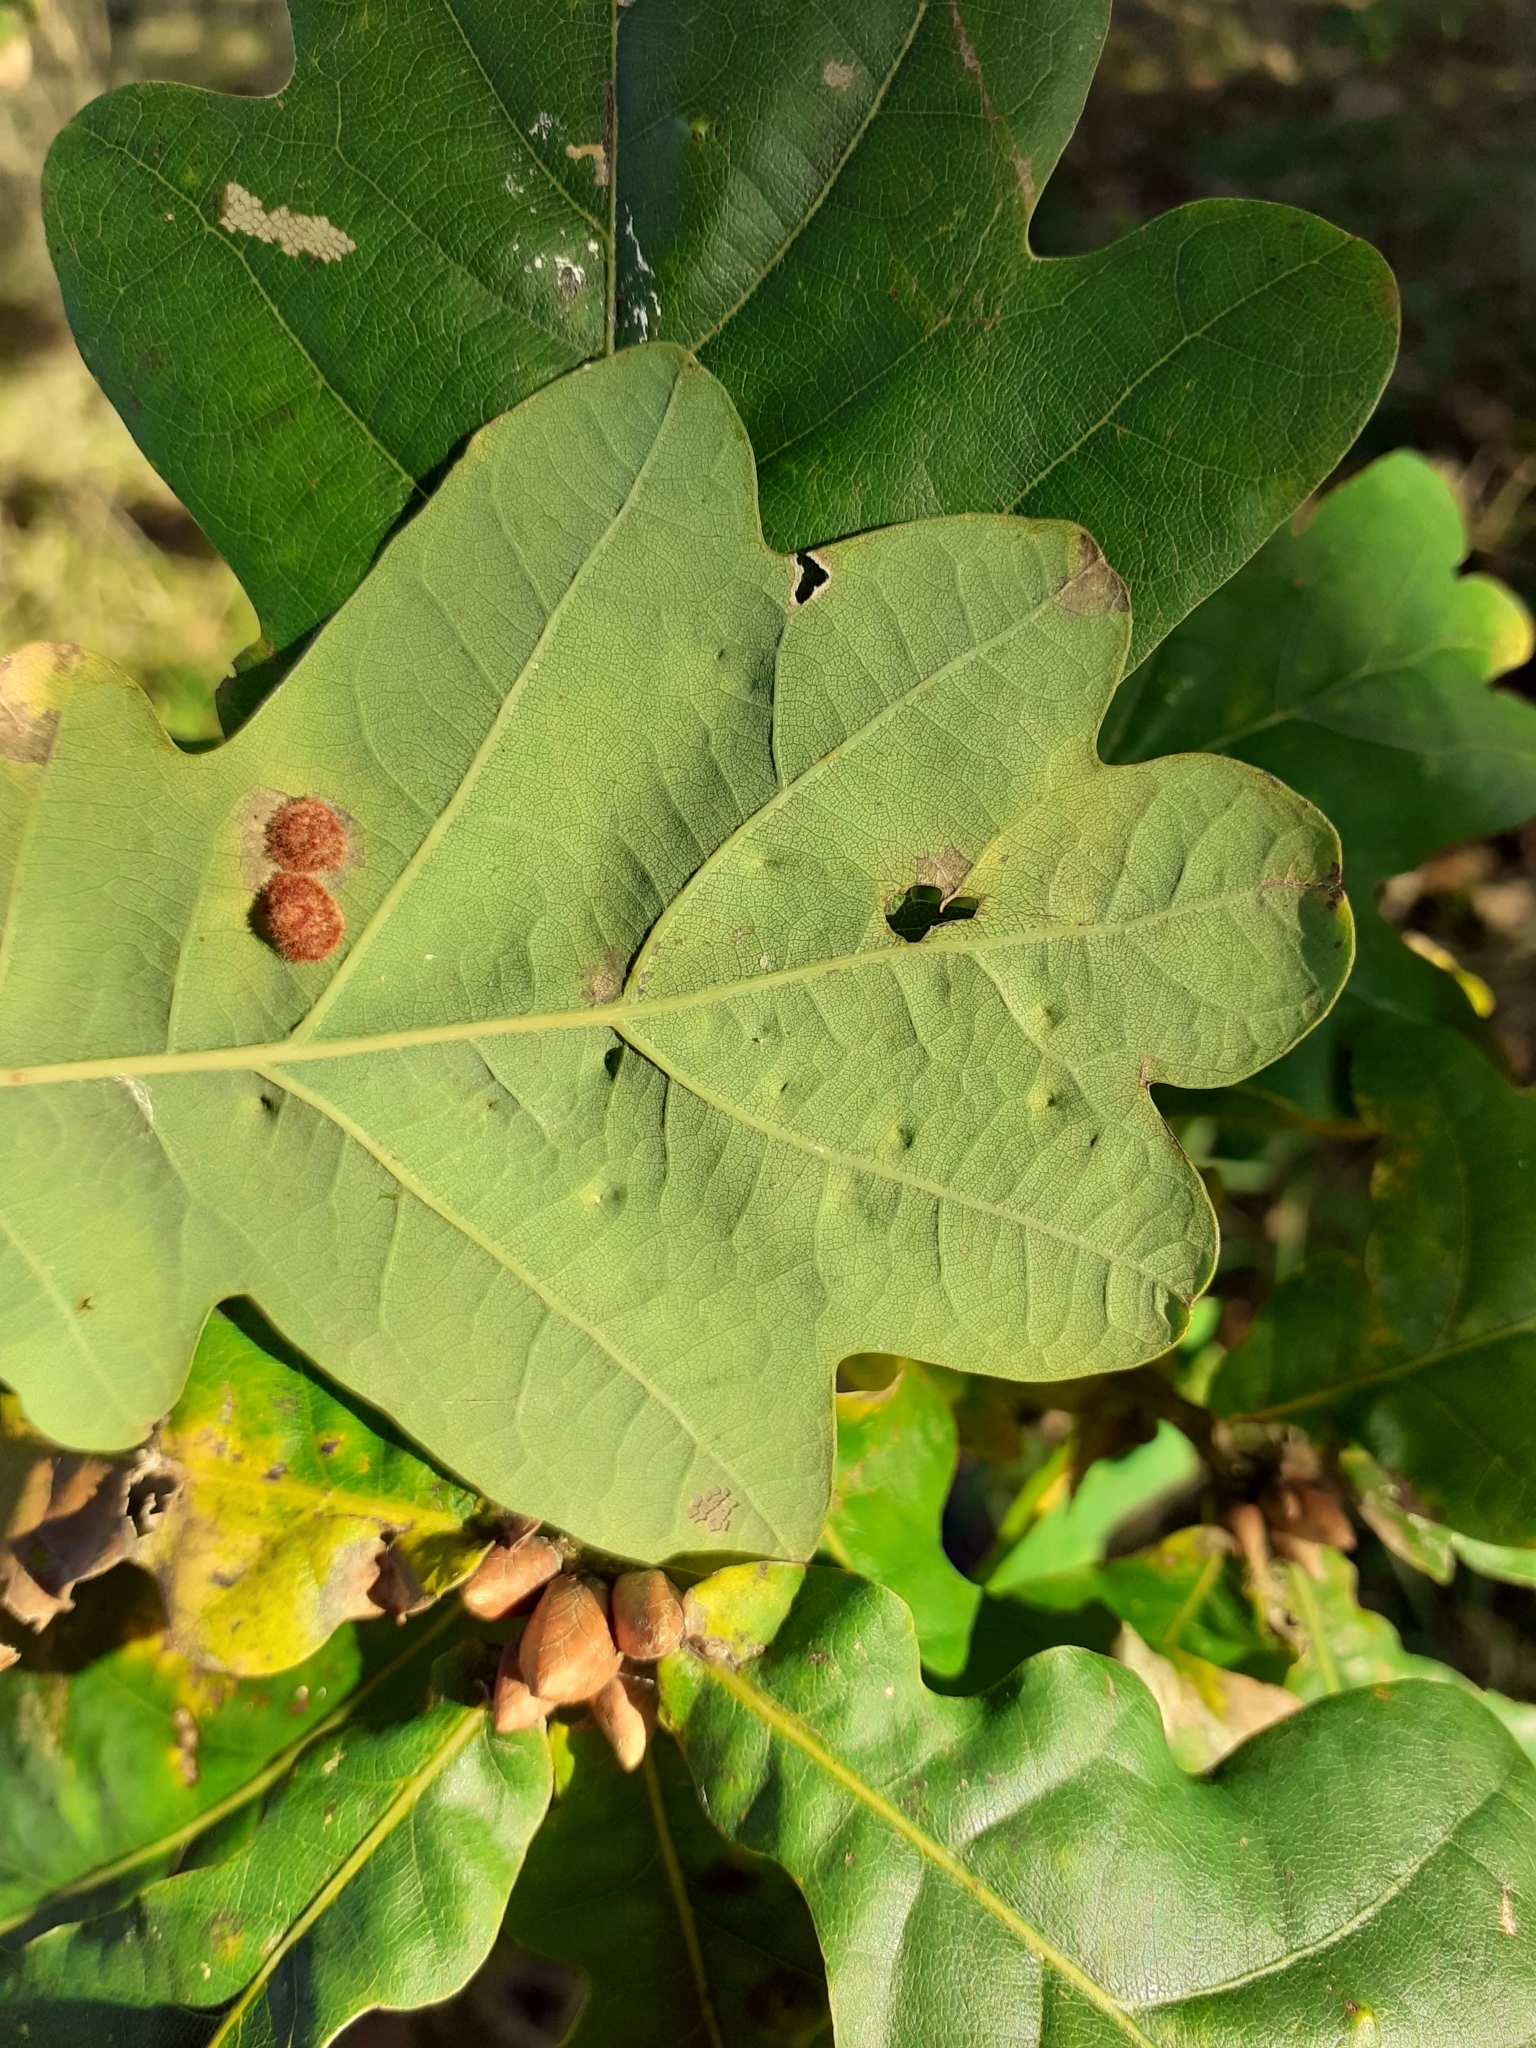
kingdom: Animalia
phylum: Arthropoda
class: Insecta
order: Hemiptera
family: Triozidae
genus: Trioza
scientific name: Trioza remota
